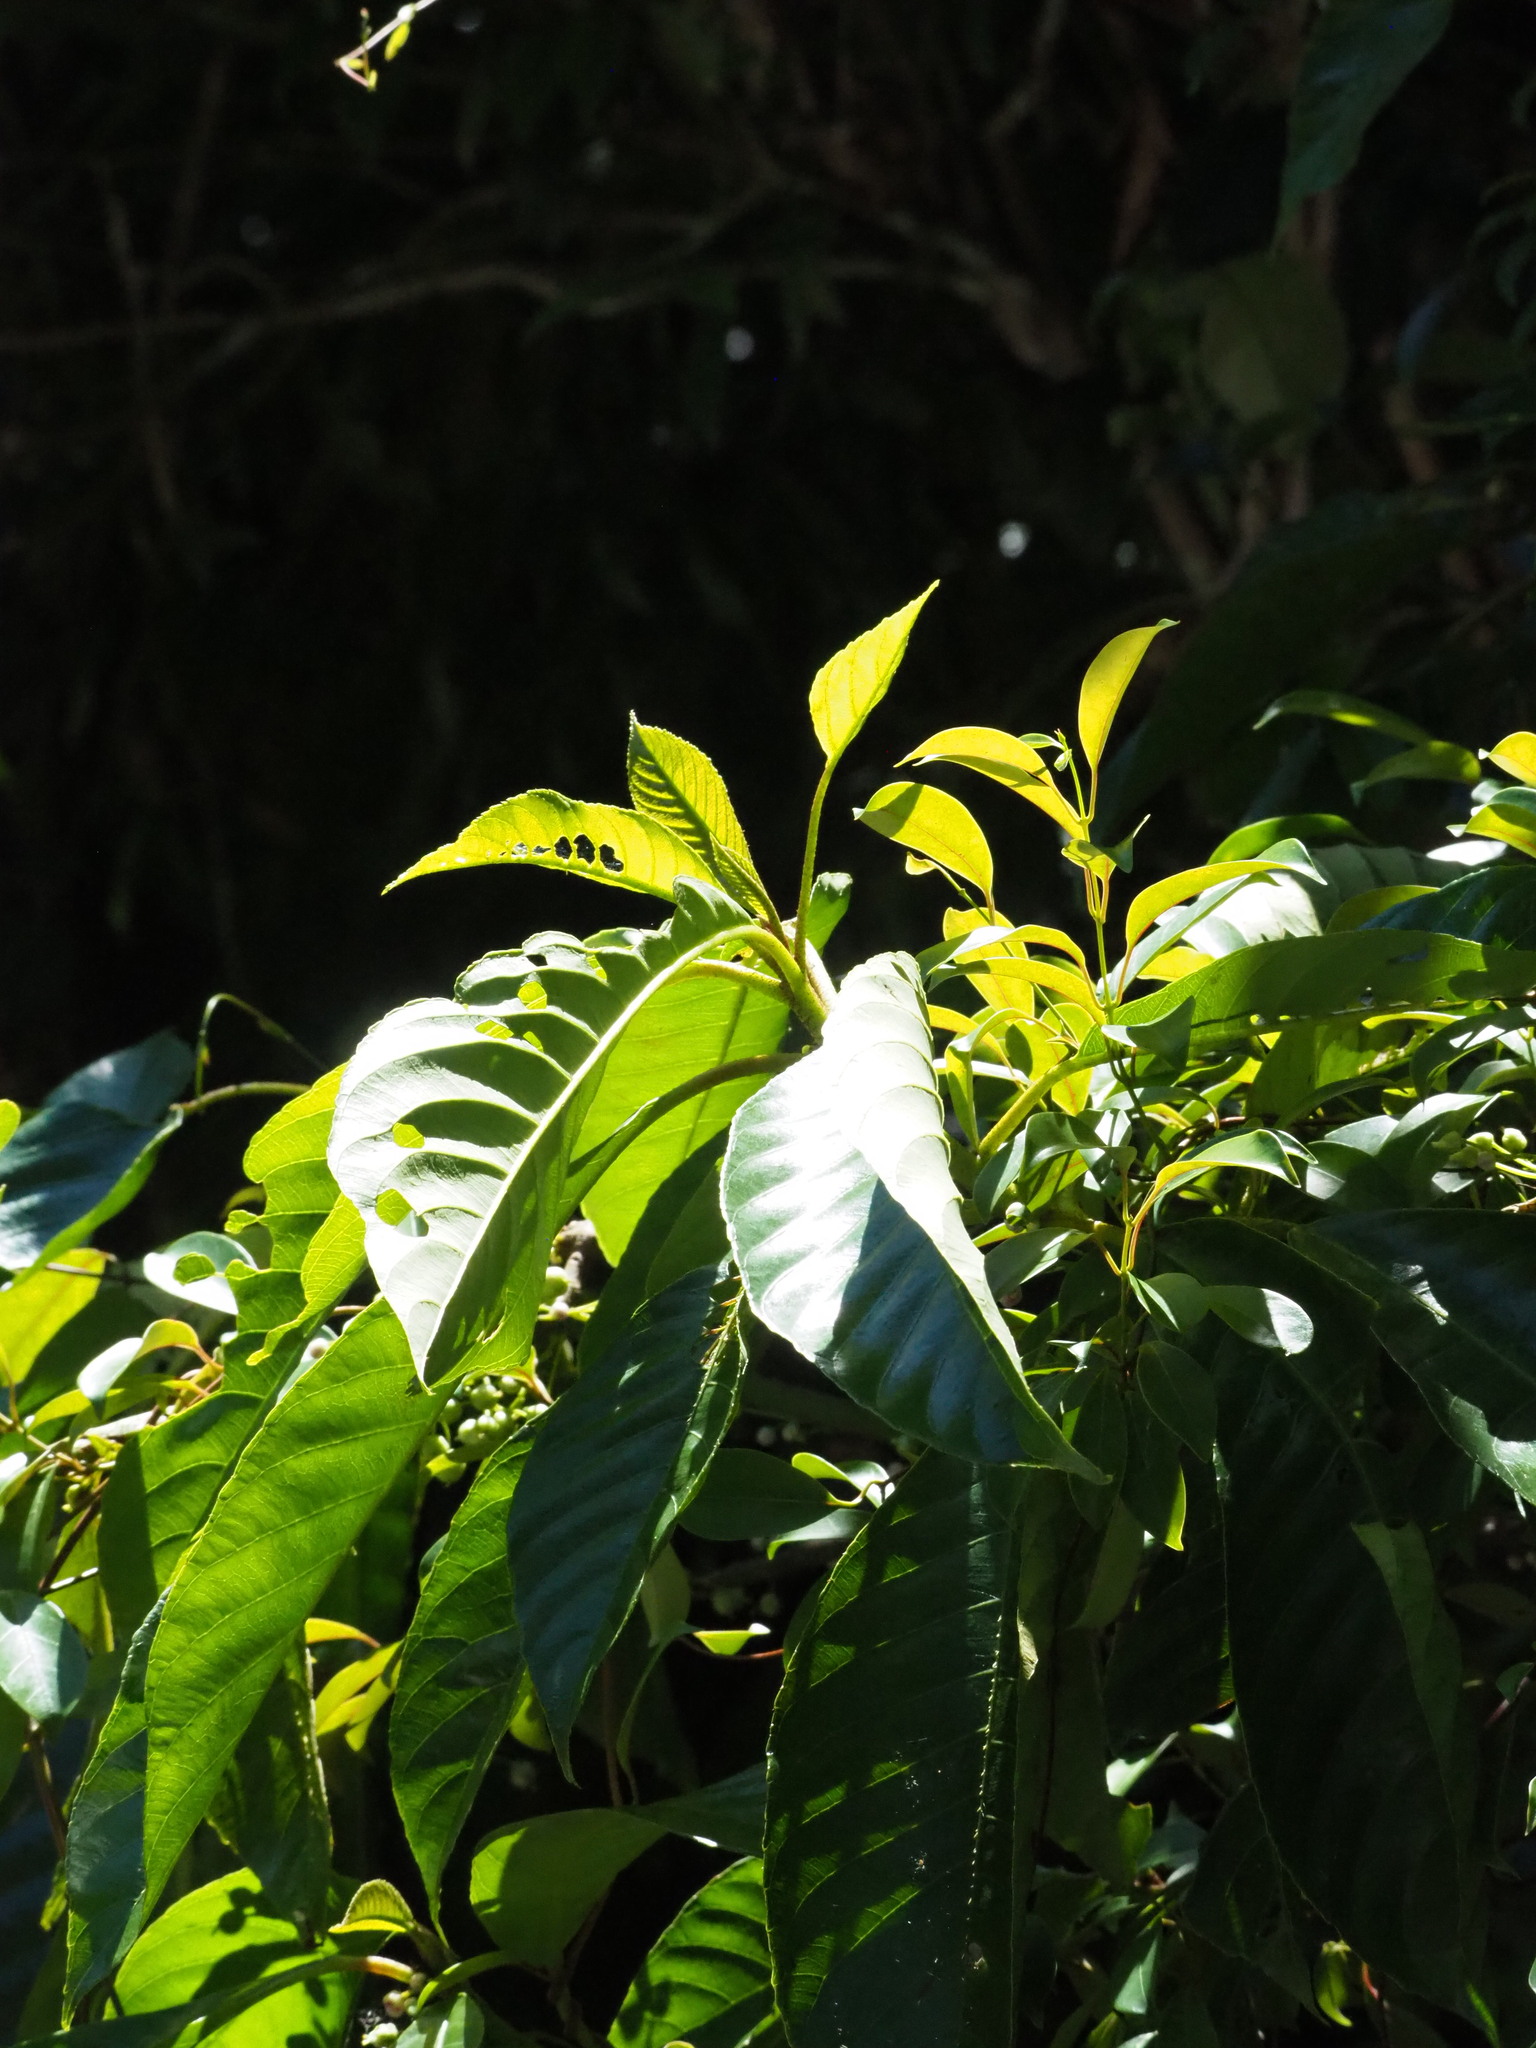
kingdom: Plantae
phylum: Tracheophyta
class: Magnoliopsida
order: Ericales
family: Actinidiaceae
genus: Saurauia
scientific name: Saurauia tristyla
